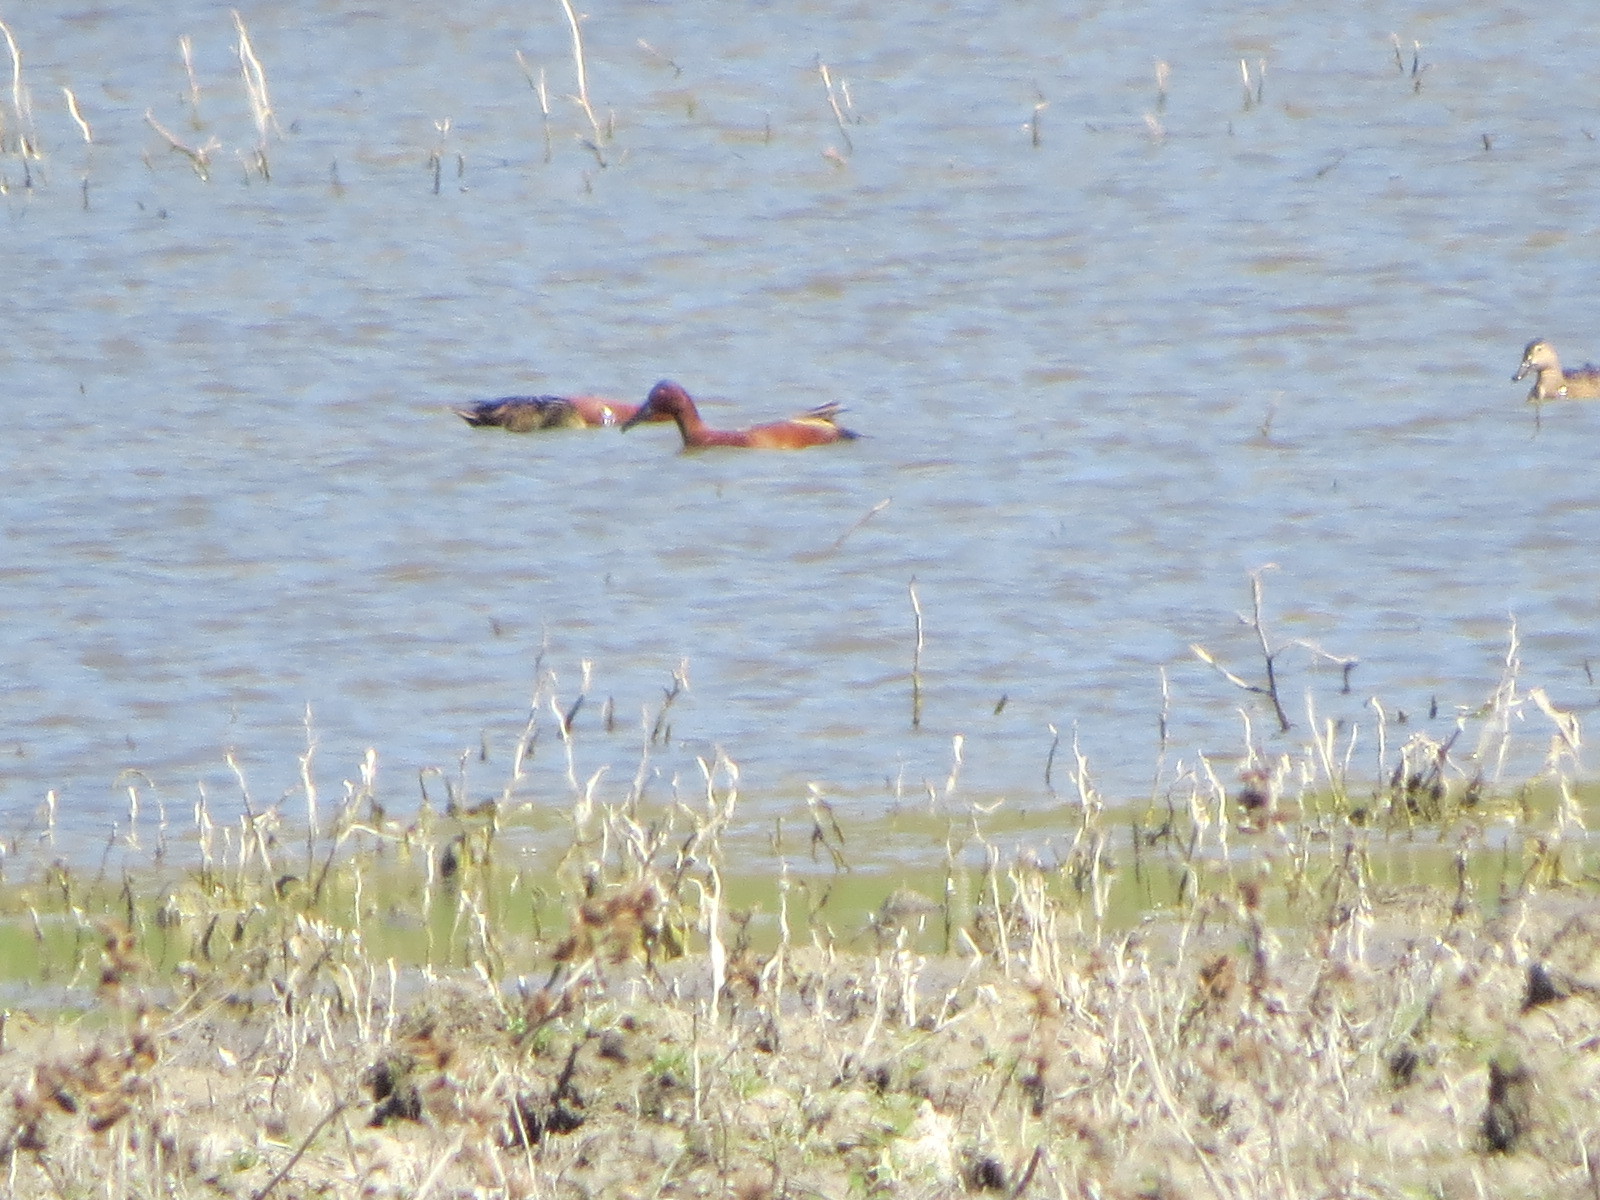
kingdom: Animalia
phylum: Chordata
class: Aves
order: Anseriformes
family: Anatidae
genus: Spatula
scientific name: Spatula cyanoptera
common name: Cinnamon teal
